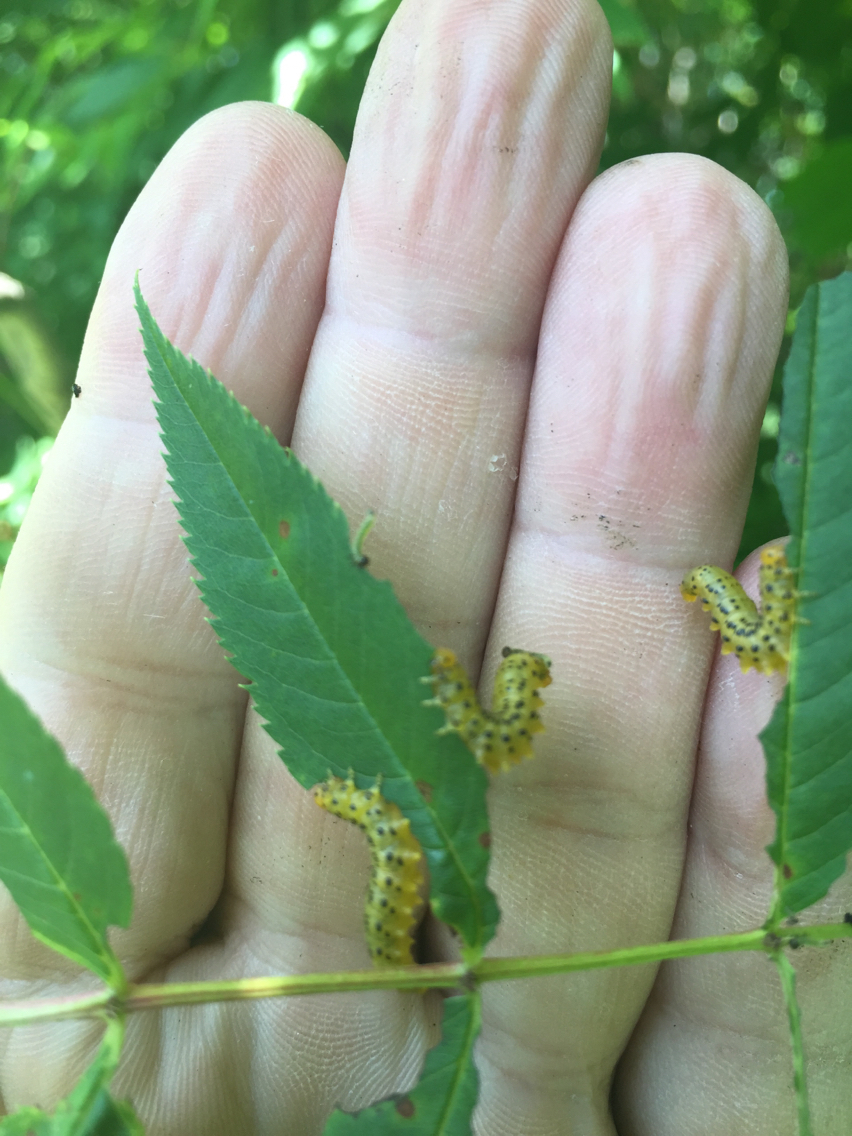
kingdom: Animalia
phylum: Arthropoda
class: Insecta
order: Hymenoptera
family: Tenthredinidae
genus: Pristiphora
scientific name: Pristiphora geniculata
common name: Mountain-ash sawfly
